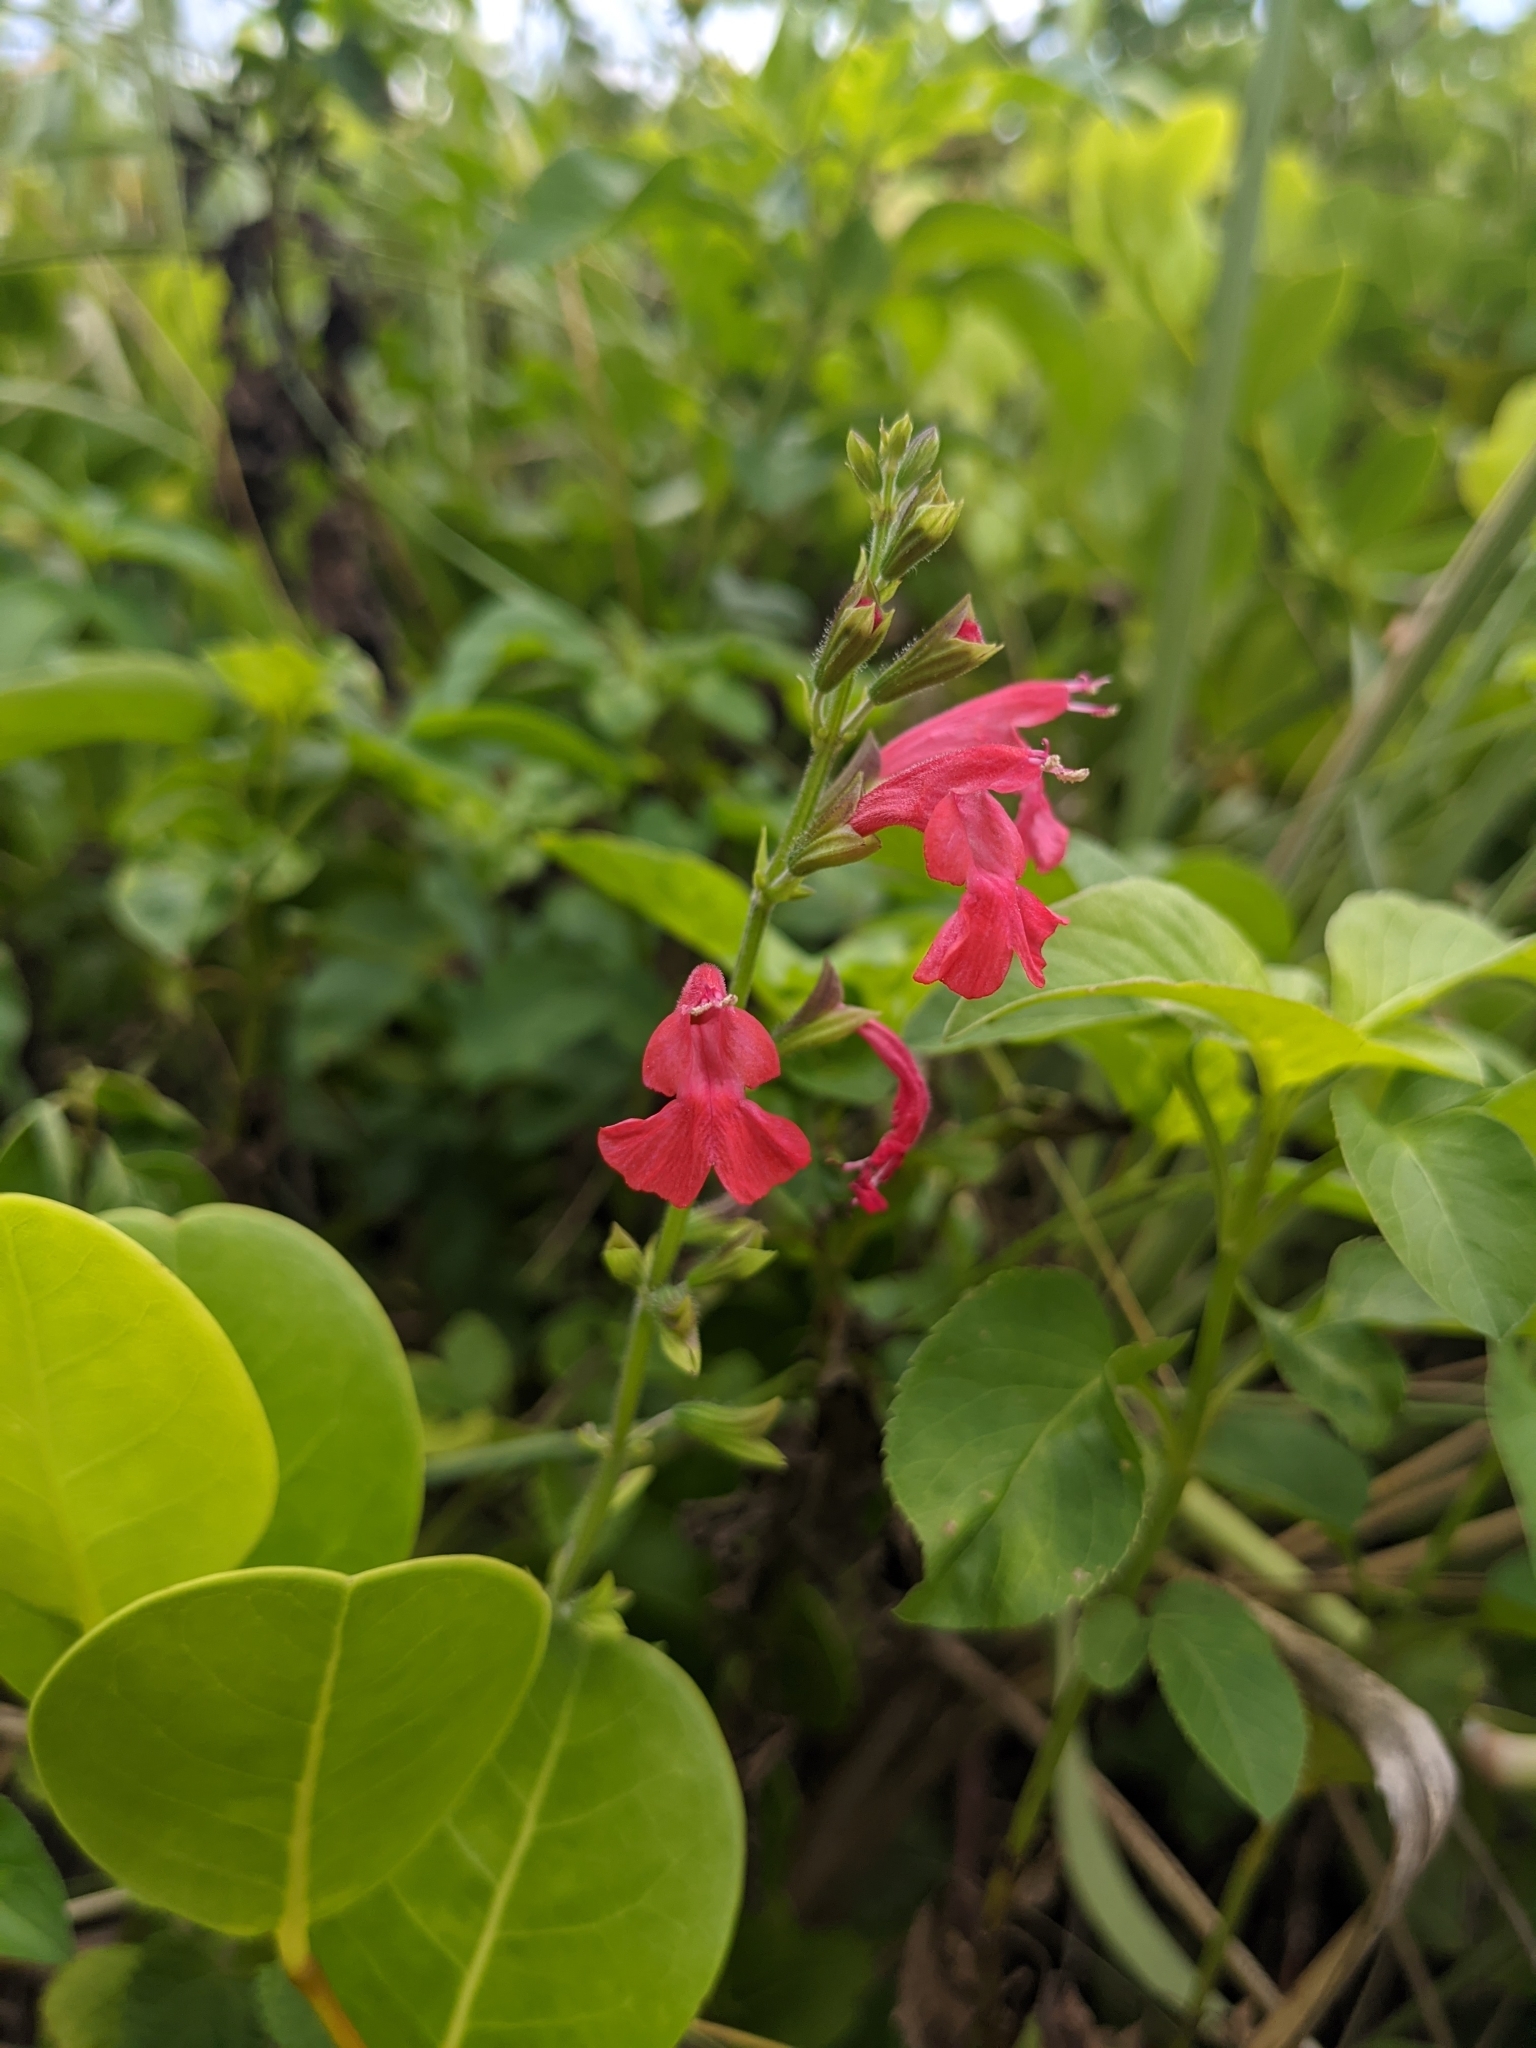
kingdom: Plantae
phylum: Tracheophyta
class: Magnoliopsida
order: Lamiales
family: Lamiaceae
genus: Salvia
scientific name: Salvia coccinea
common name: Blood sage
